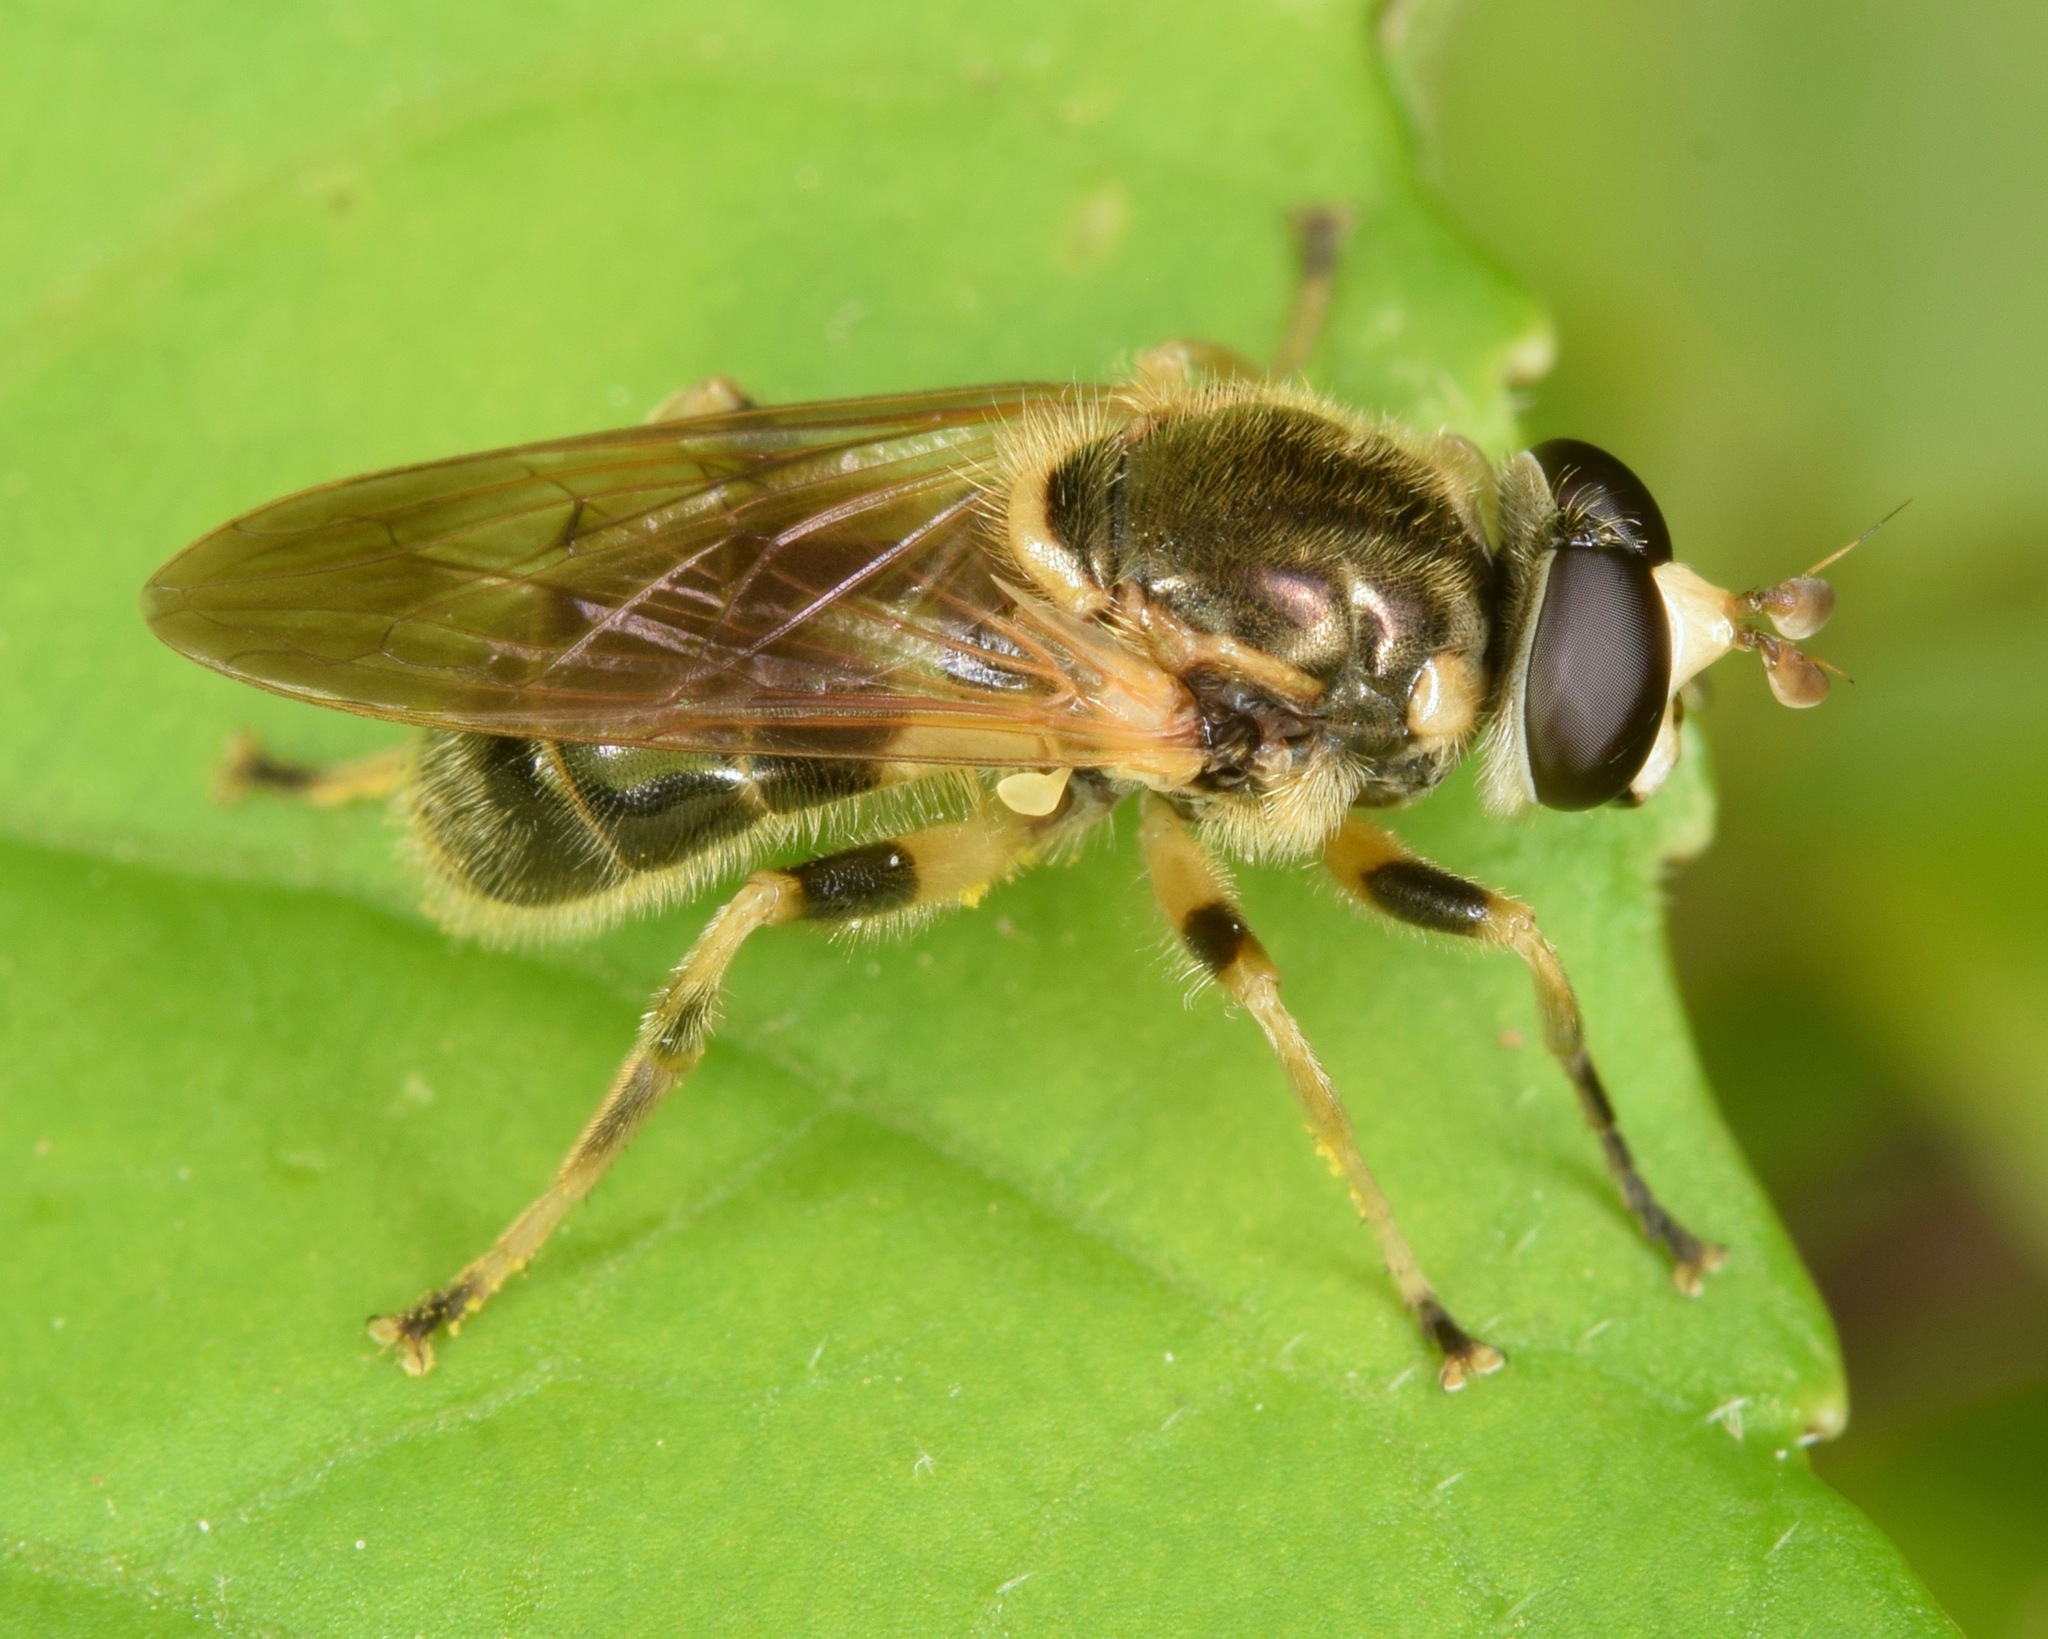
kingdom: Animalia
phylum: Arthropoda
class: Insecta
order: Diptera
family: Syrphidae
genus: Blera
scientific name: Blera pictipes
